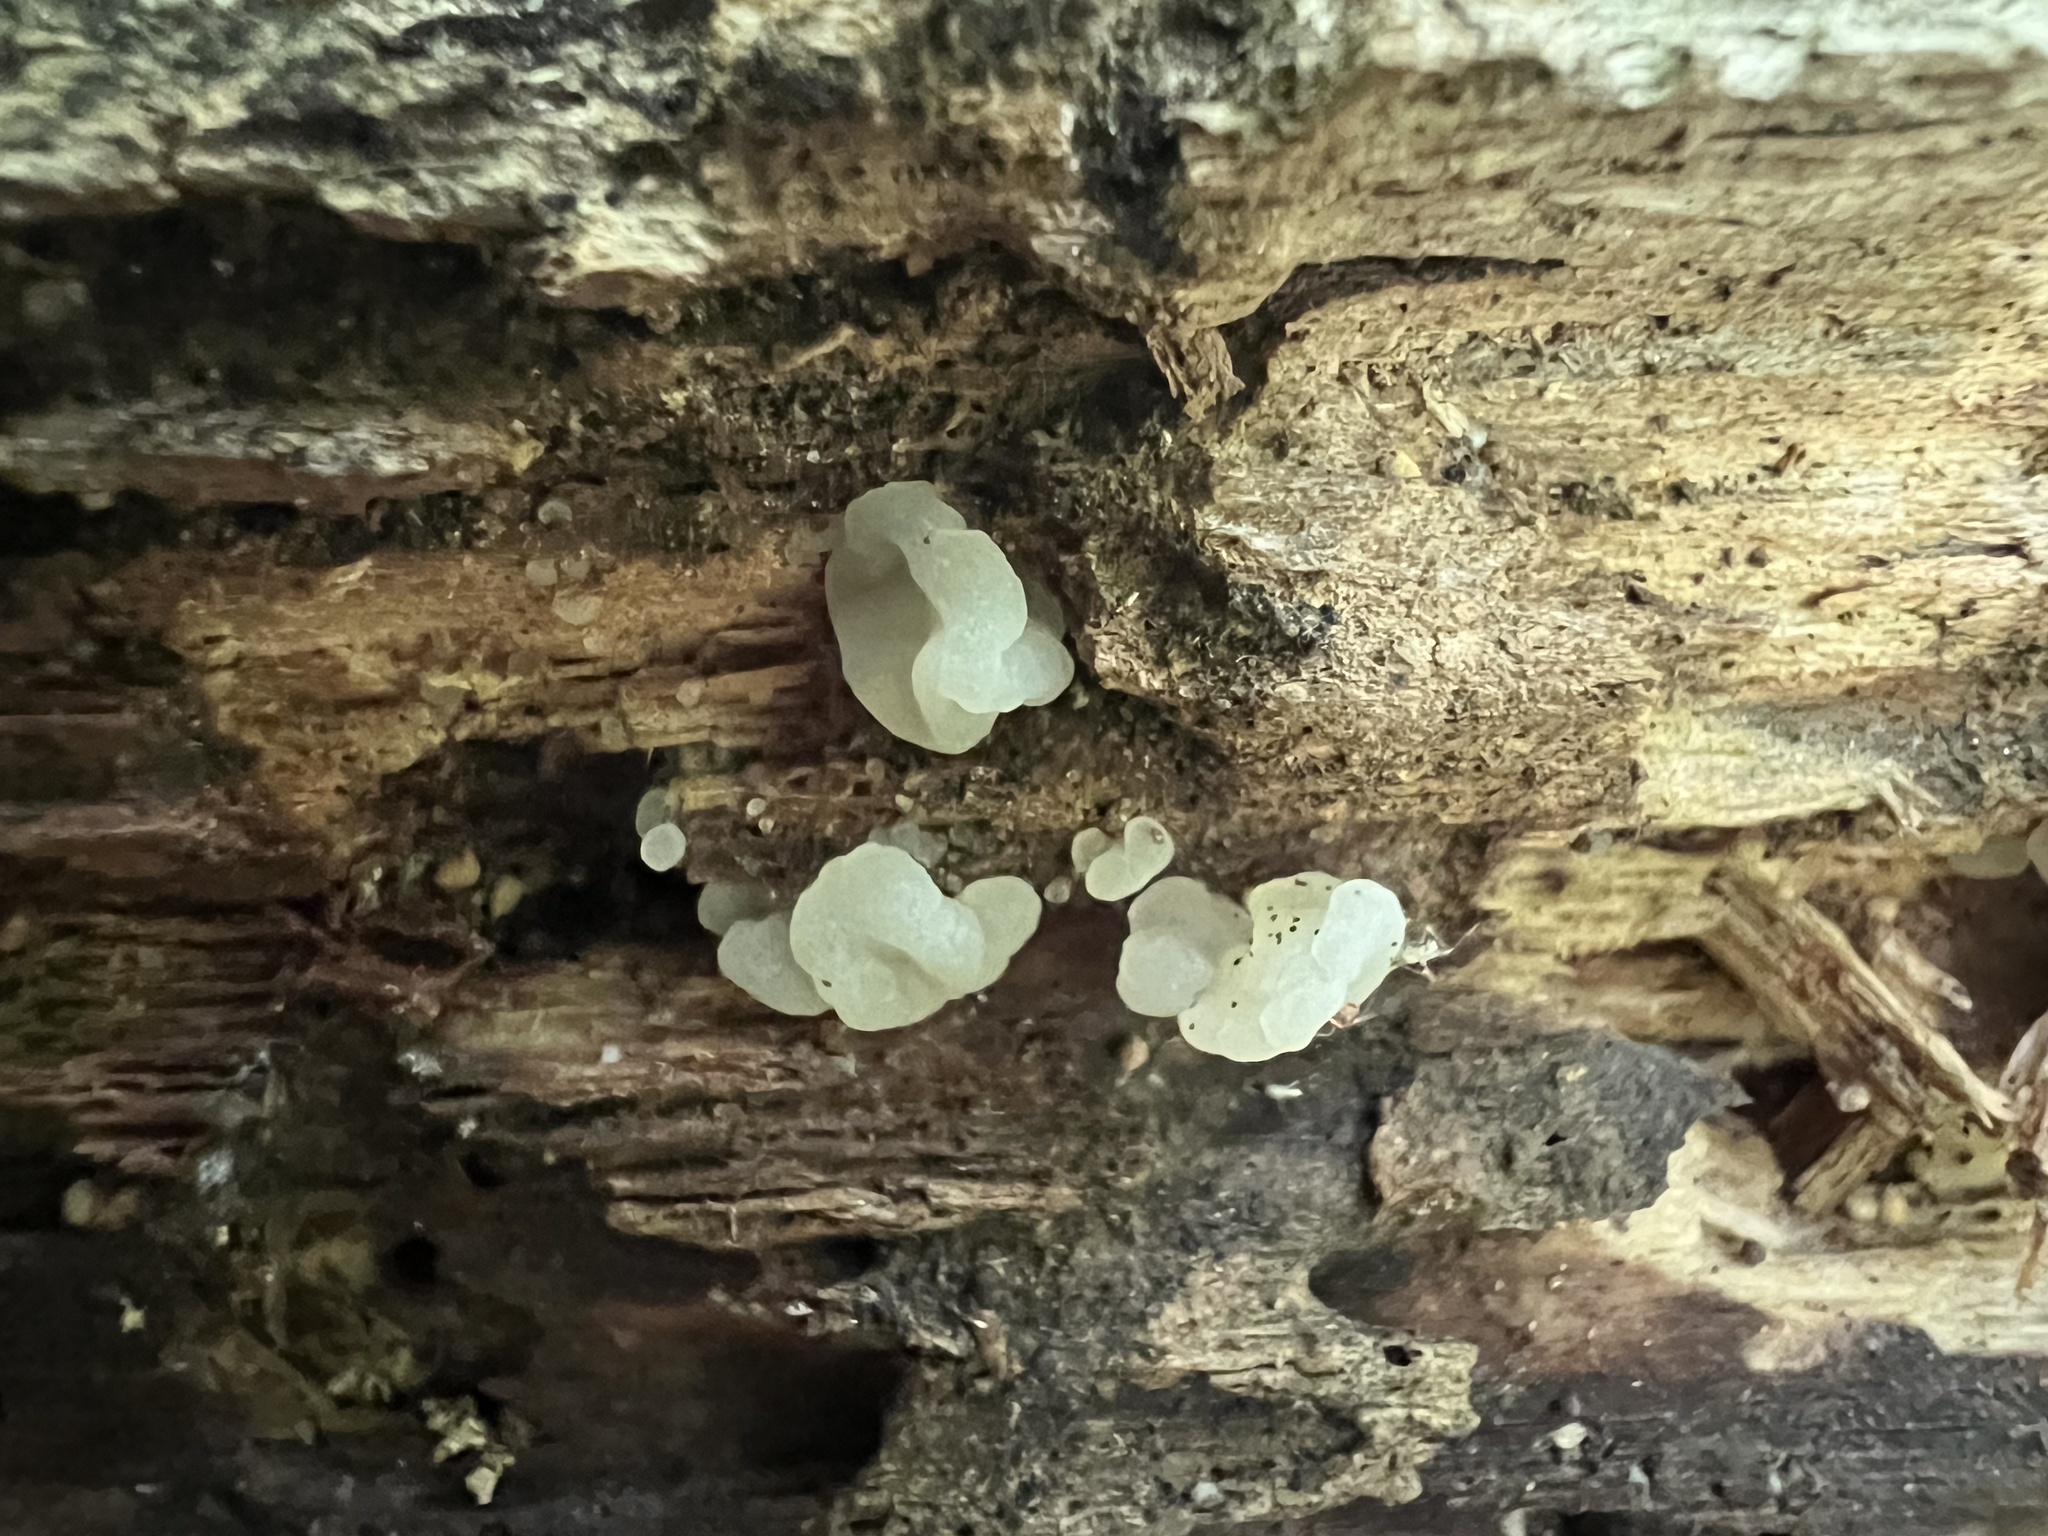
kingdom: Fungi
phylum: Basidiomycota
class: Agaricomycetes
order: Auriculariales
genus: Ductifera
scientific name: Ductifera pululahuana
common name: White jelly fungus
